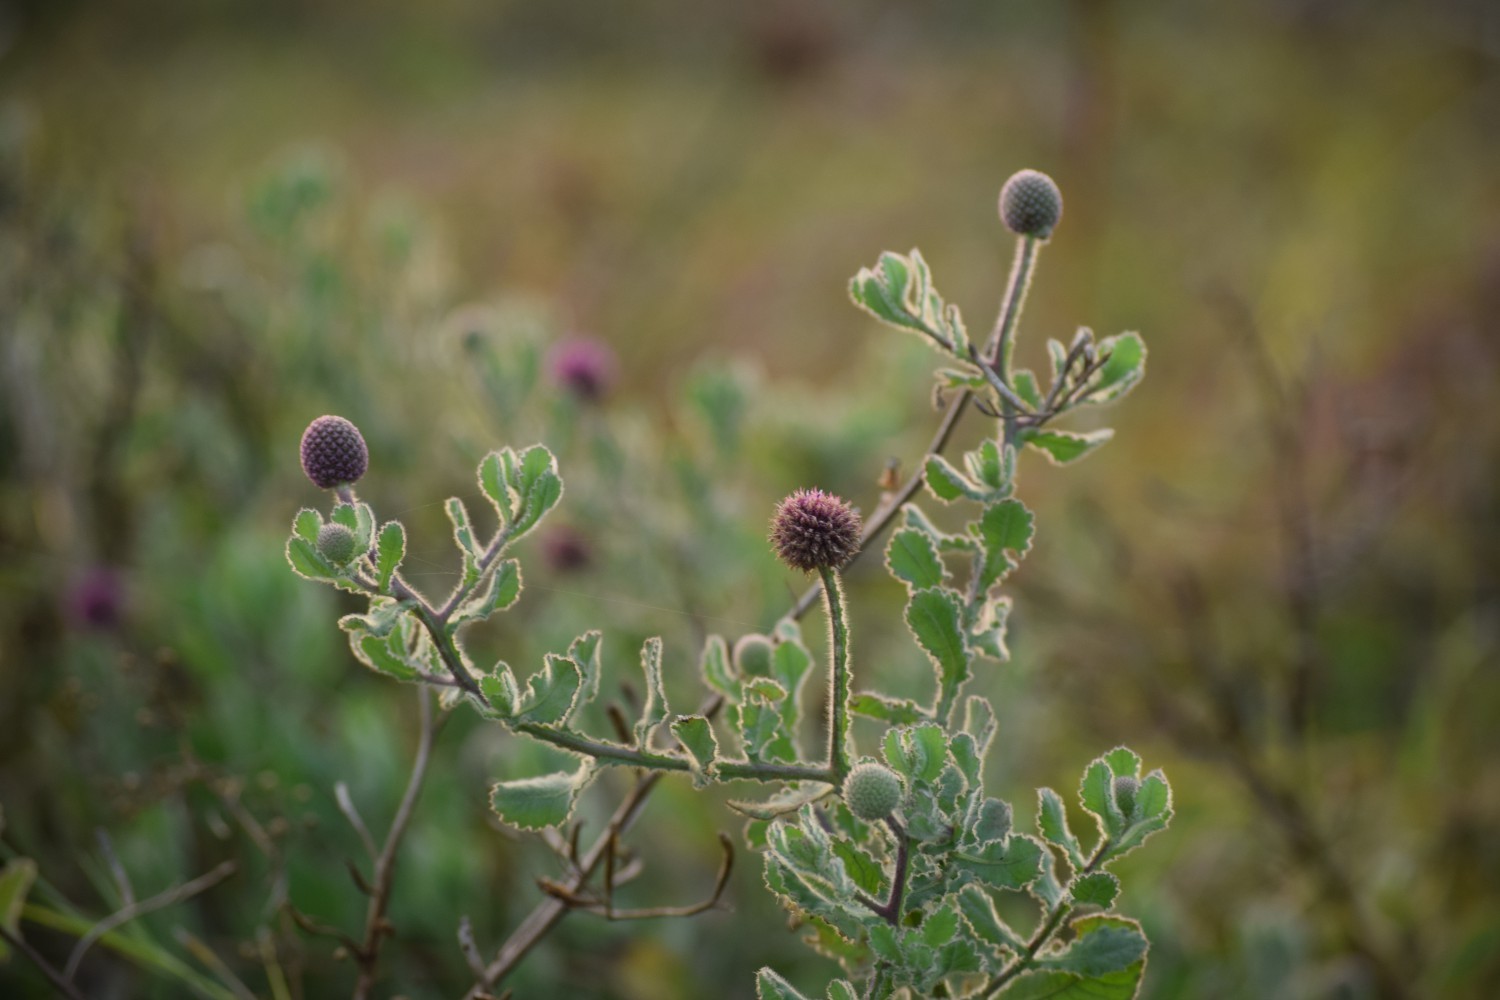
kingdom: Plantae
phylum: Tracheophyta
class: Magnoliopsida
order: Asterales
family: Asteraceae
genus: Sphaeranthus
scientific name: Sphaeranthus indicus
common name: East indian globe thistle
